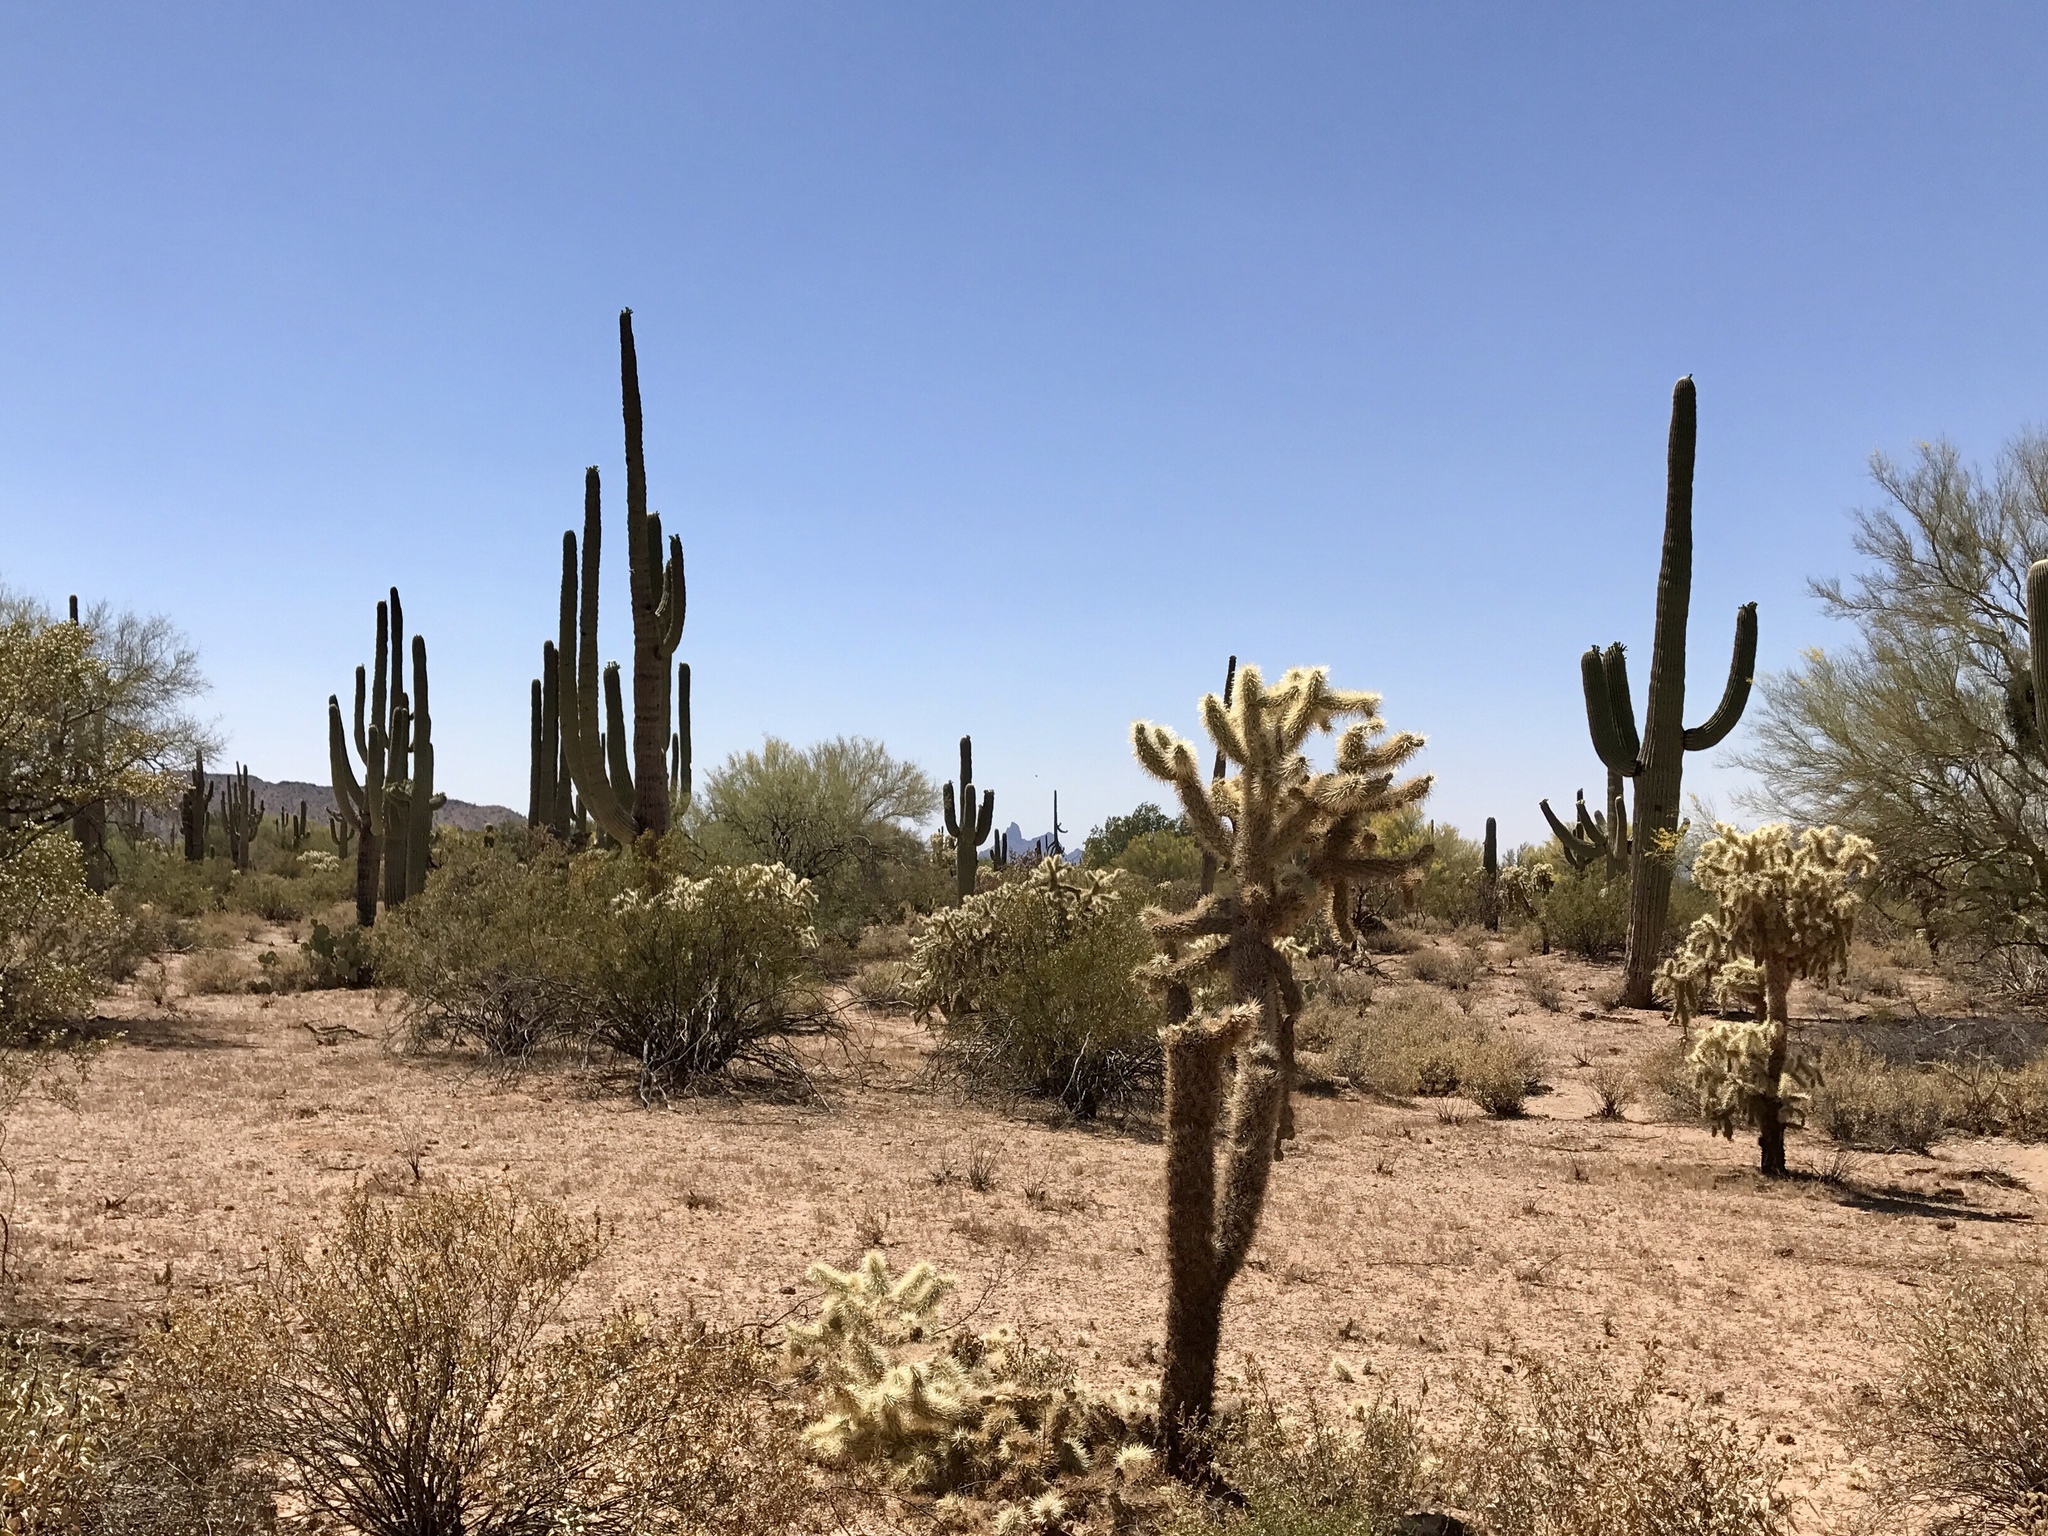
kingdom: Plantae
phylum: Tracheophyta
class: Magnoliopsida
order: Caryophyllales
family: Cactaceae
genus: Cylindropuntia
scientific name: Cylindropuntia fulgida
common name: Jumping cholla
